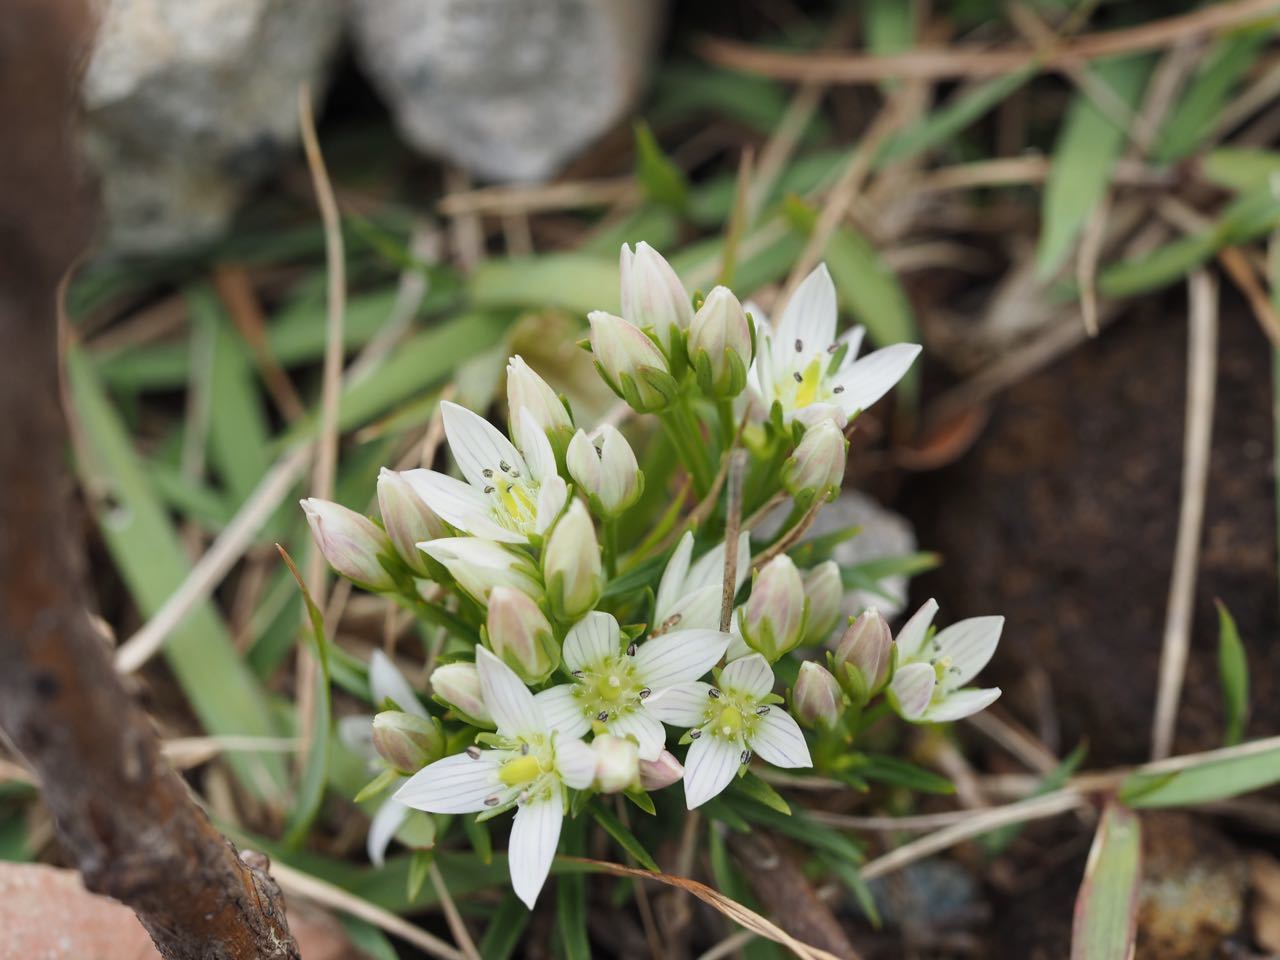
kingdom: Plantae
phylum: Tracheophyta
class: Magnoliopsida
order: Gentianales
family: Gentianaceae
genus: Swertia
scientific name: Swertia japonica
